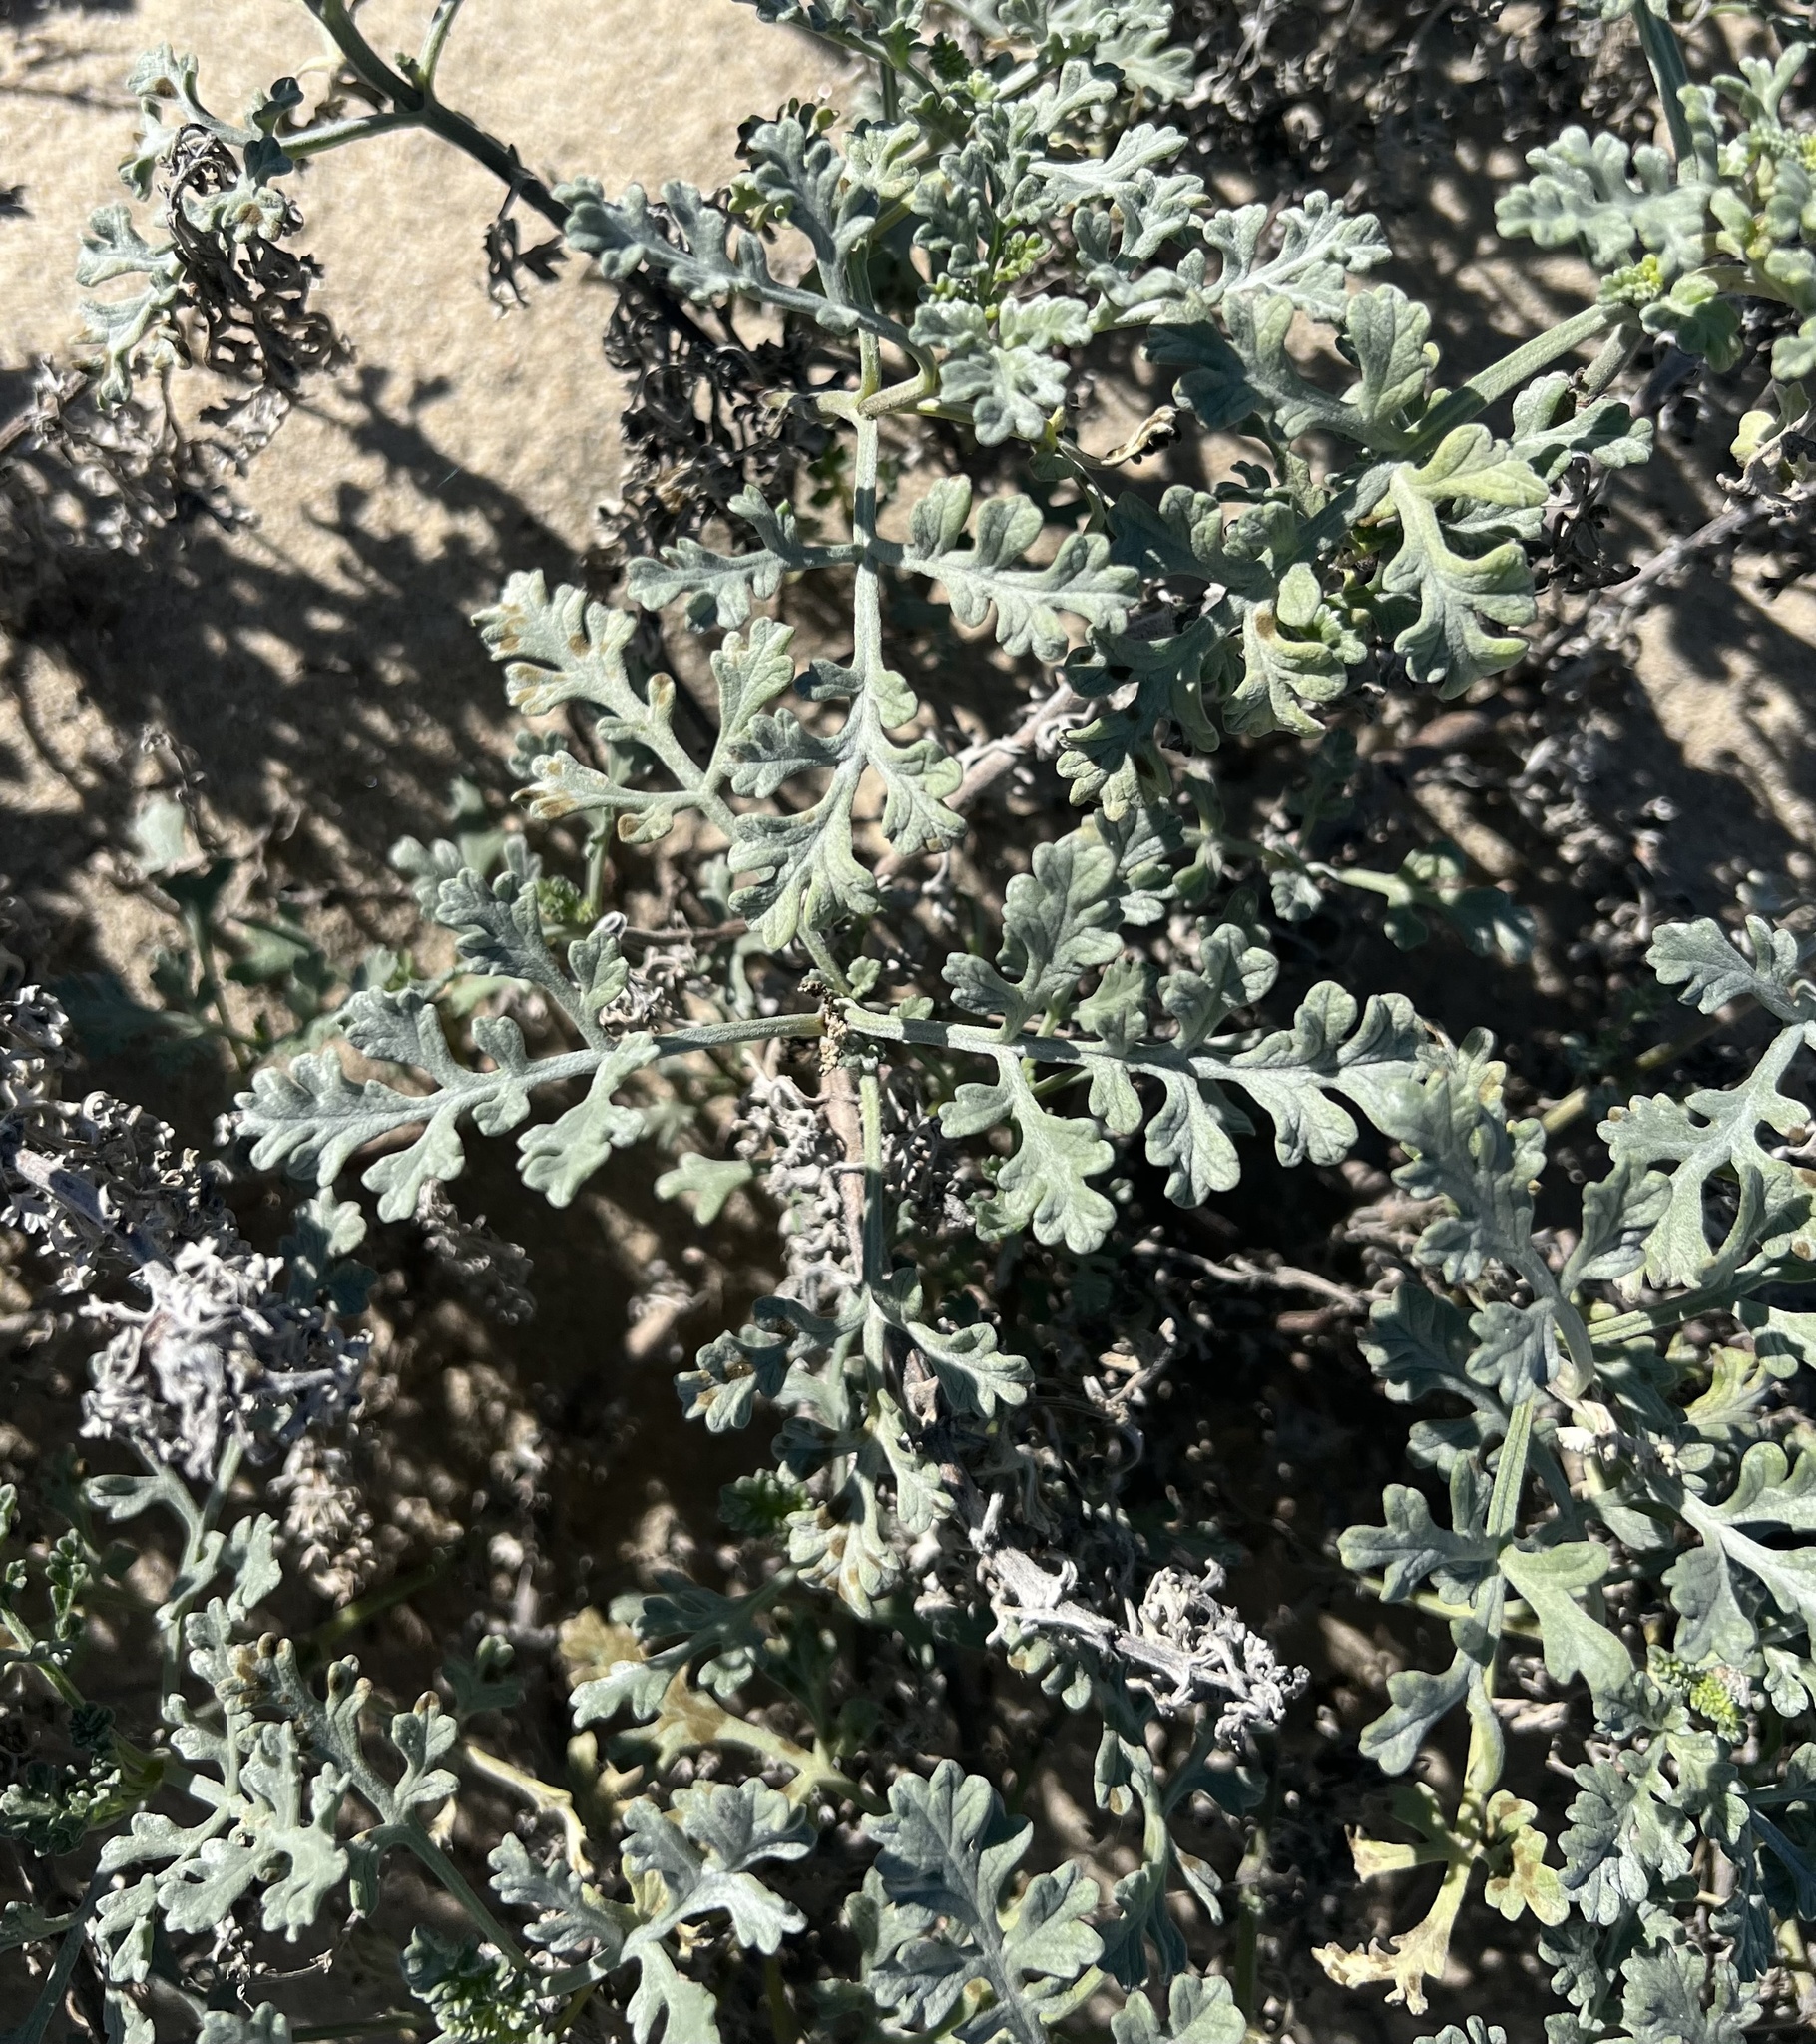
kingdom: Plantae
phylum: Tracheophyta
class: Magnoliopsida
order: Asterales
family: Asteraceae
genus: Ambrosia
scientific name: Ambrosia chamissonis
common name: Beachbur
